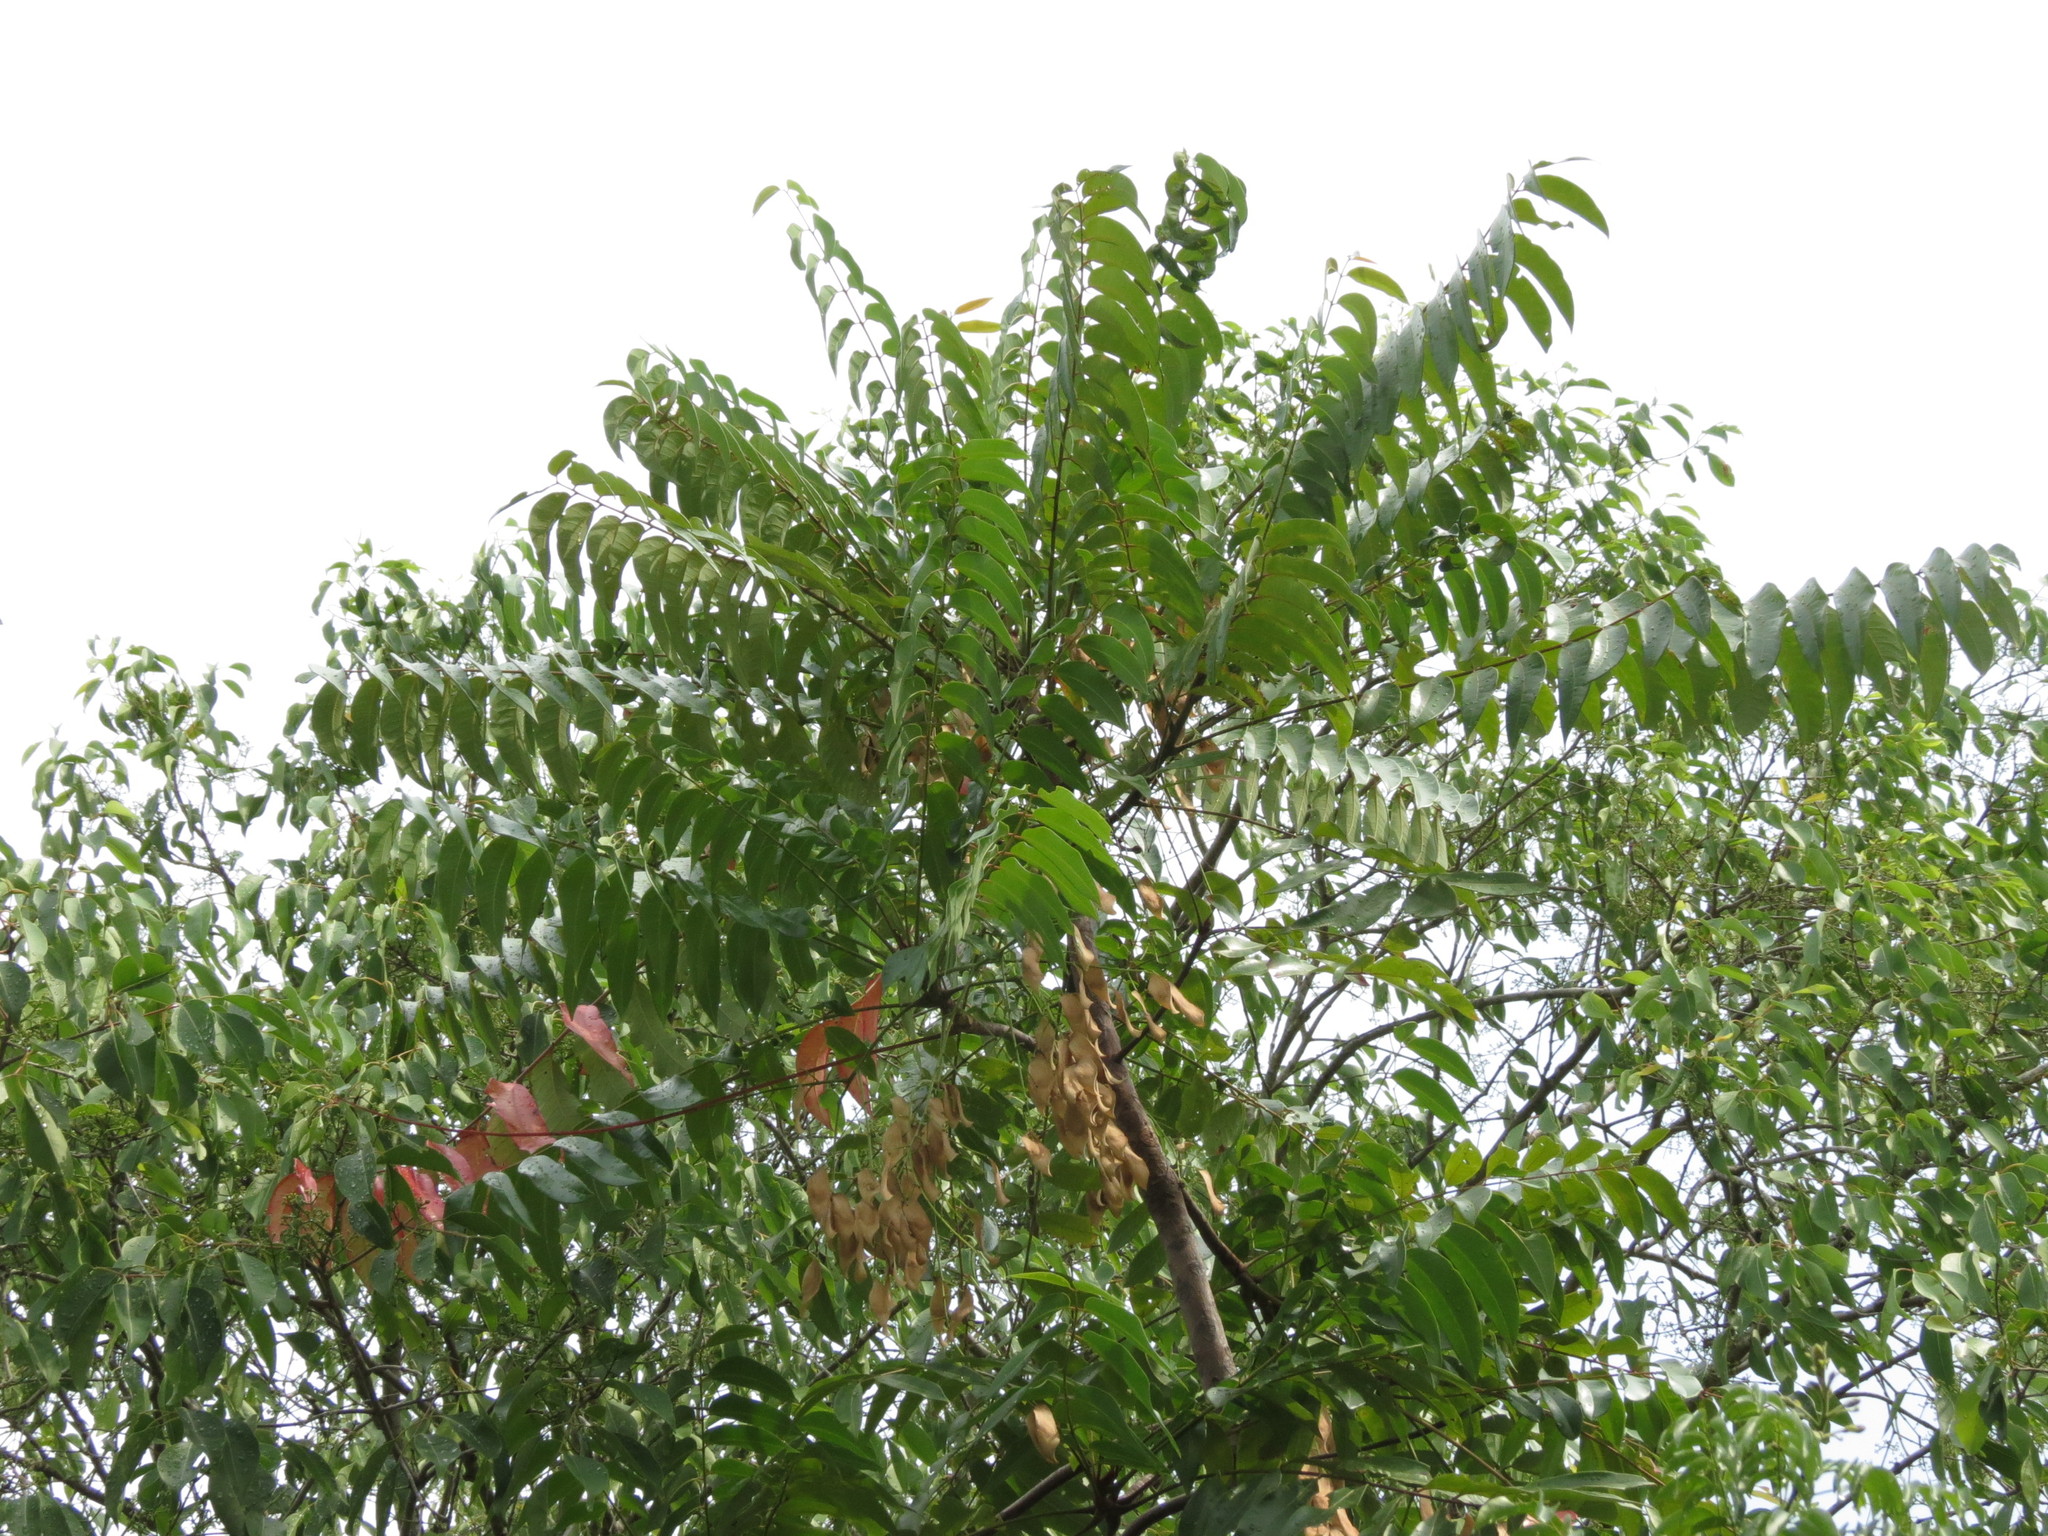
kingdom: Plantae
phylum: Tracheophyta
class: Magnoliopsida
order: Sapindales
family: Simaroubaceae
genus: Ailanthus
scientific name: Ailanthus triphysa
